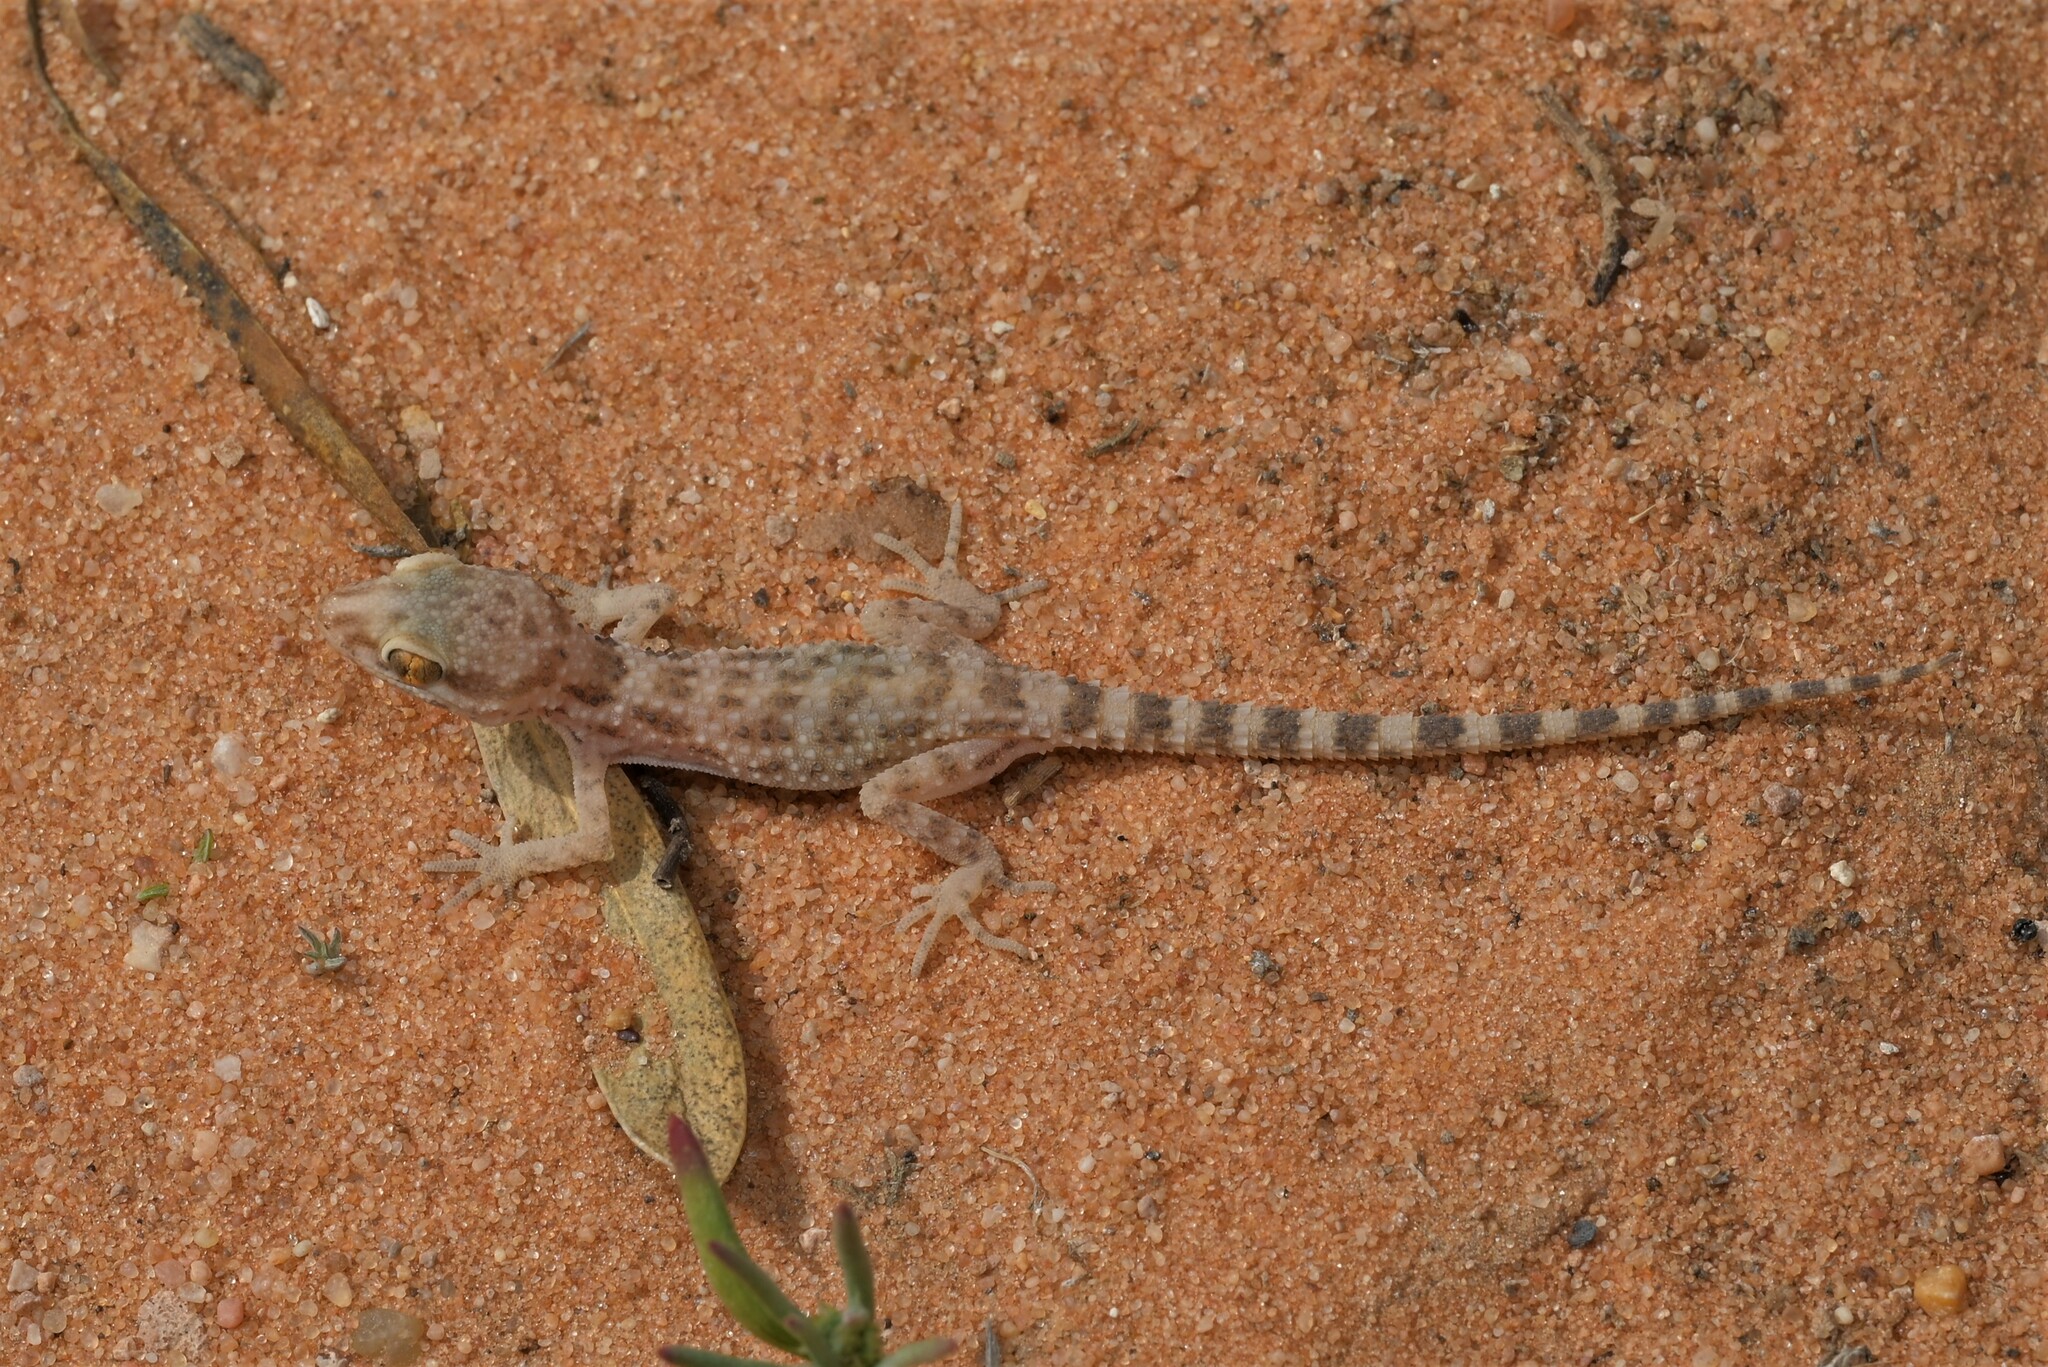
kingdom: Animalia
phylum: Chordata
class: Squamata
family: Gekkonidae
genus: Bunopus
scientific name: Bunopus tuberculatus
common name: Southern tuberculated gecko
